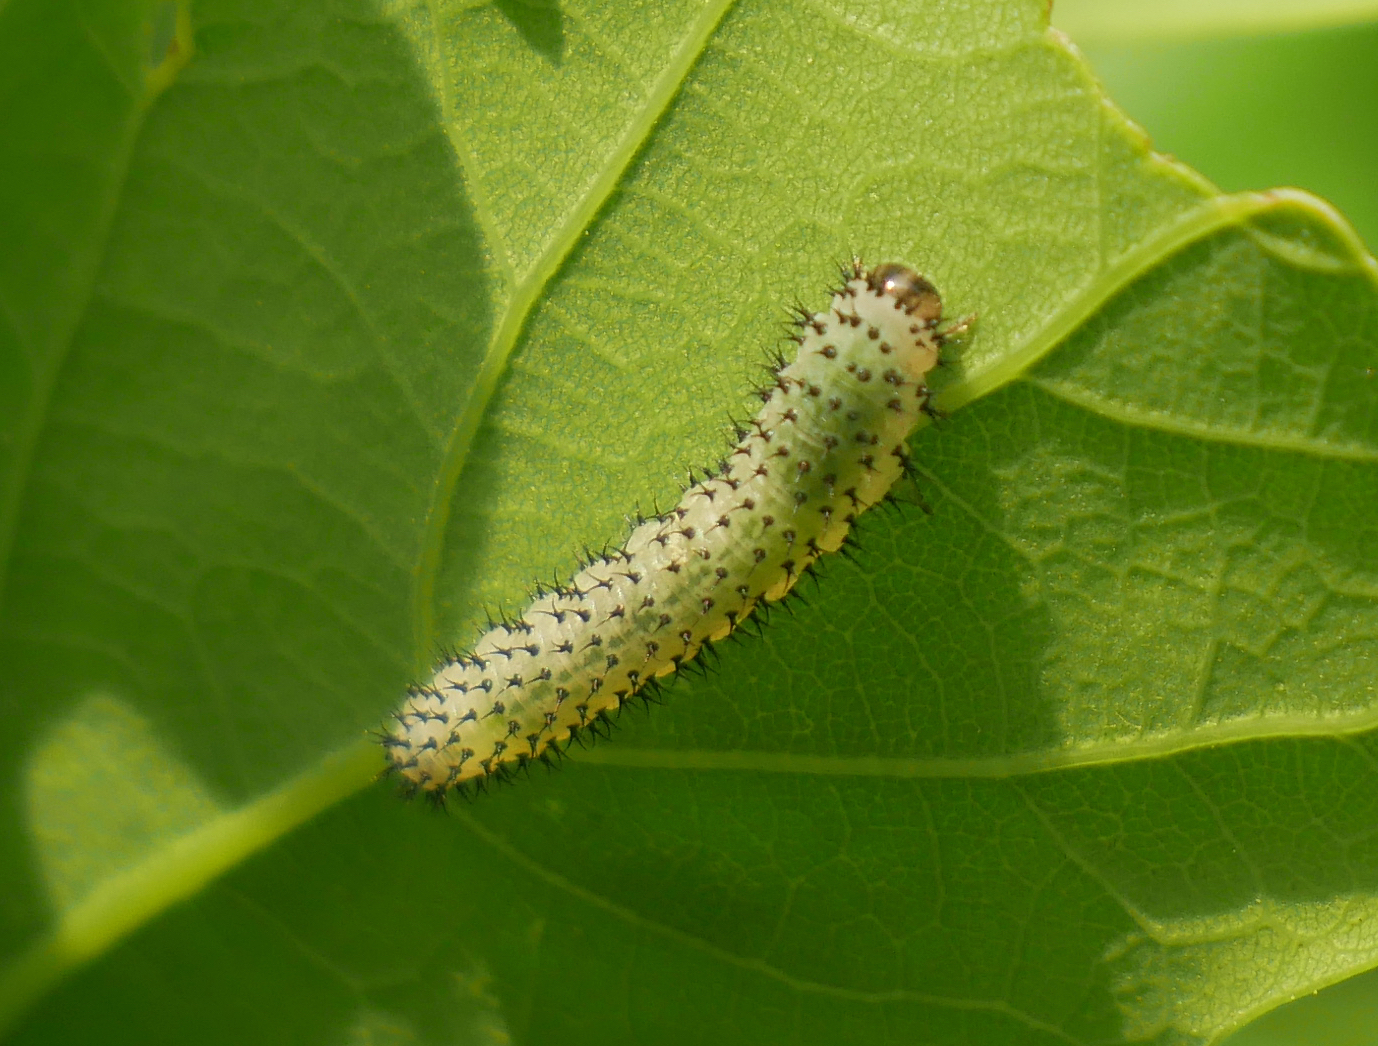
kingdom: Animalia
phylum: Arthropoda
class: Insecta
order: Hymenoptera
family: Tenthredinidae
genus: Periclista
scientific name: Periclista albida
